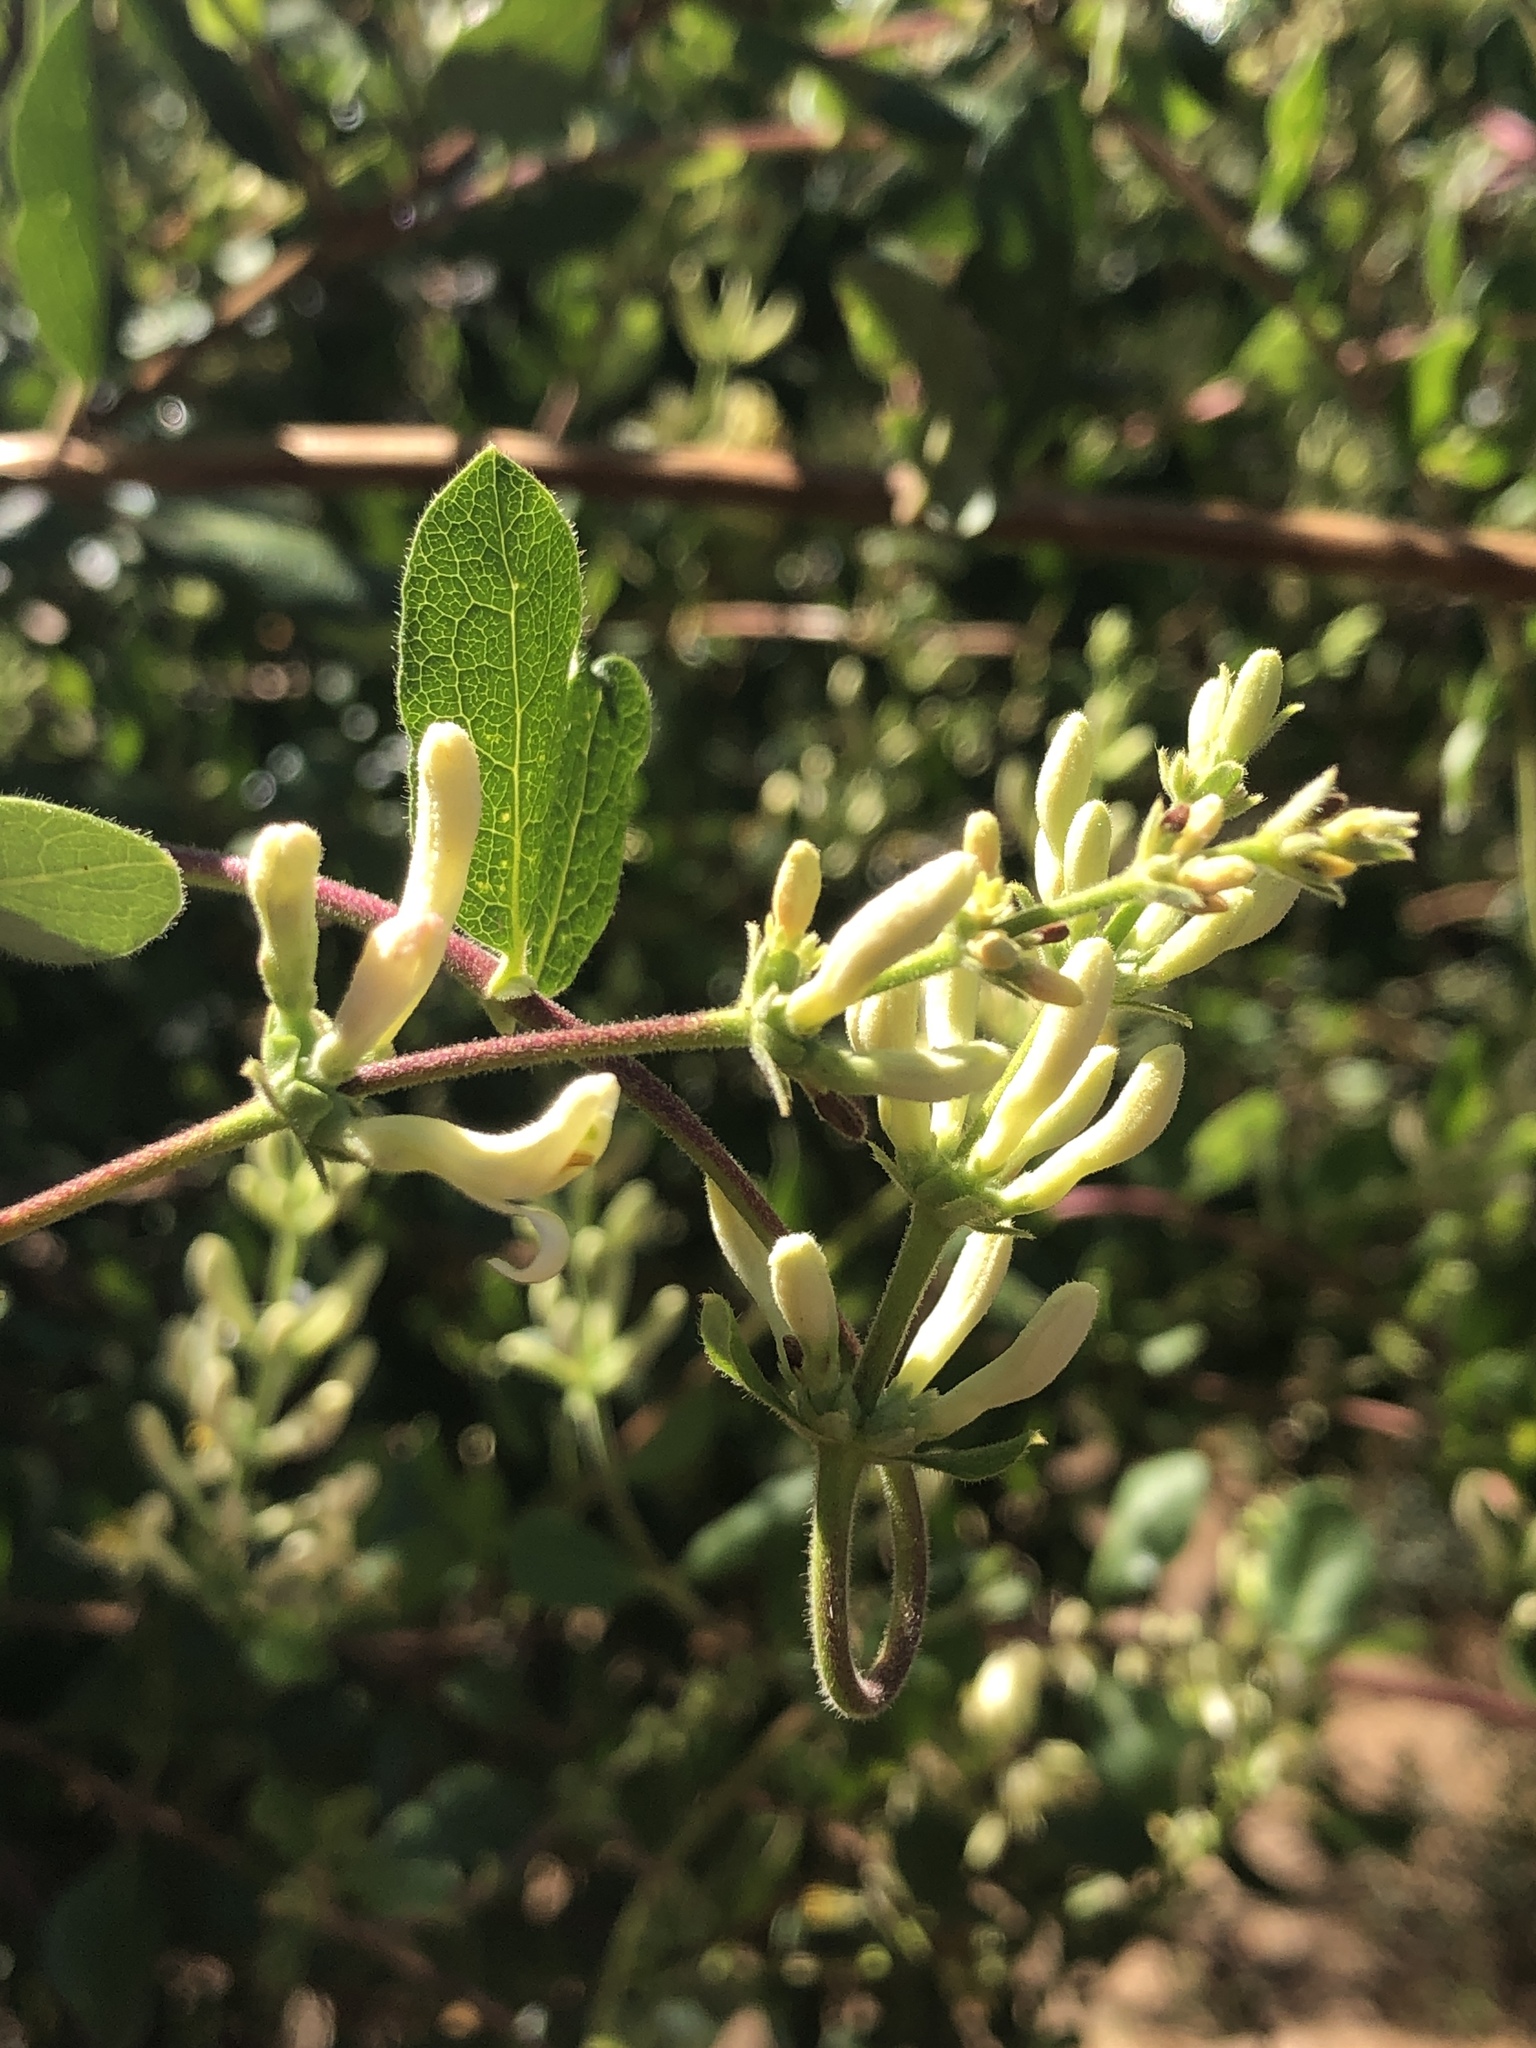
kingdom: Plantae
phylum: Tracheophyta
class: Magnoliopsida
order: Dipsacales
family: Caprifoliaceae
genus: Lonicera
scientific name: Lonicera subspicata
